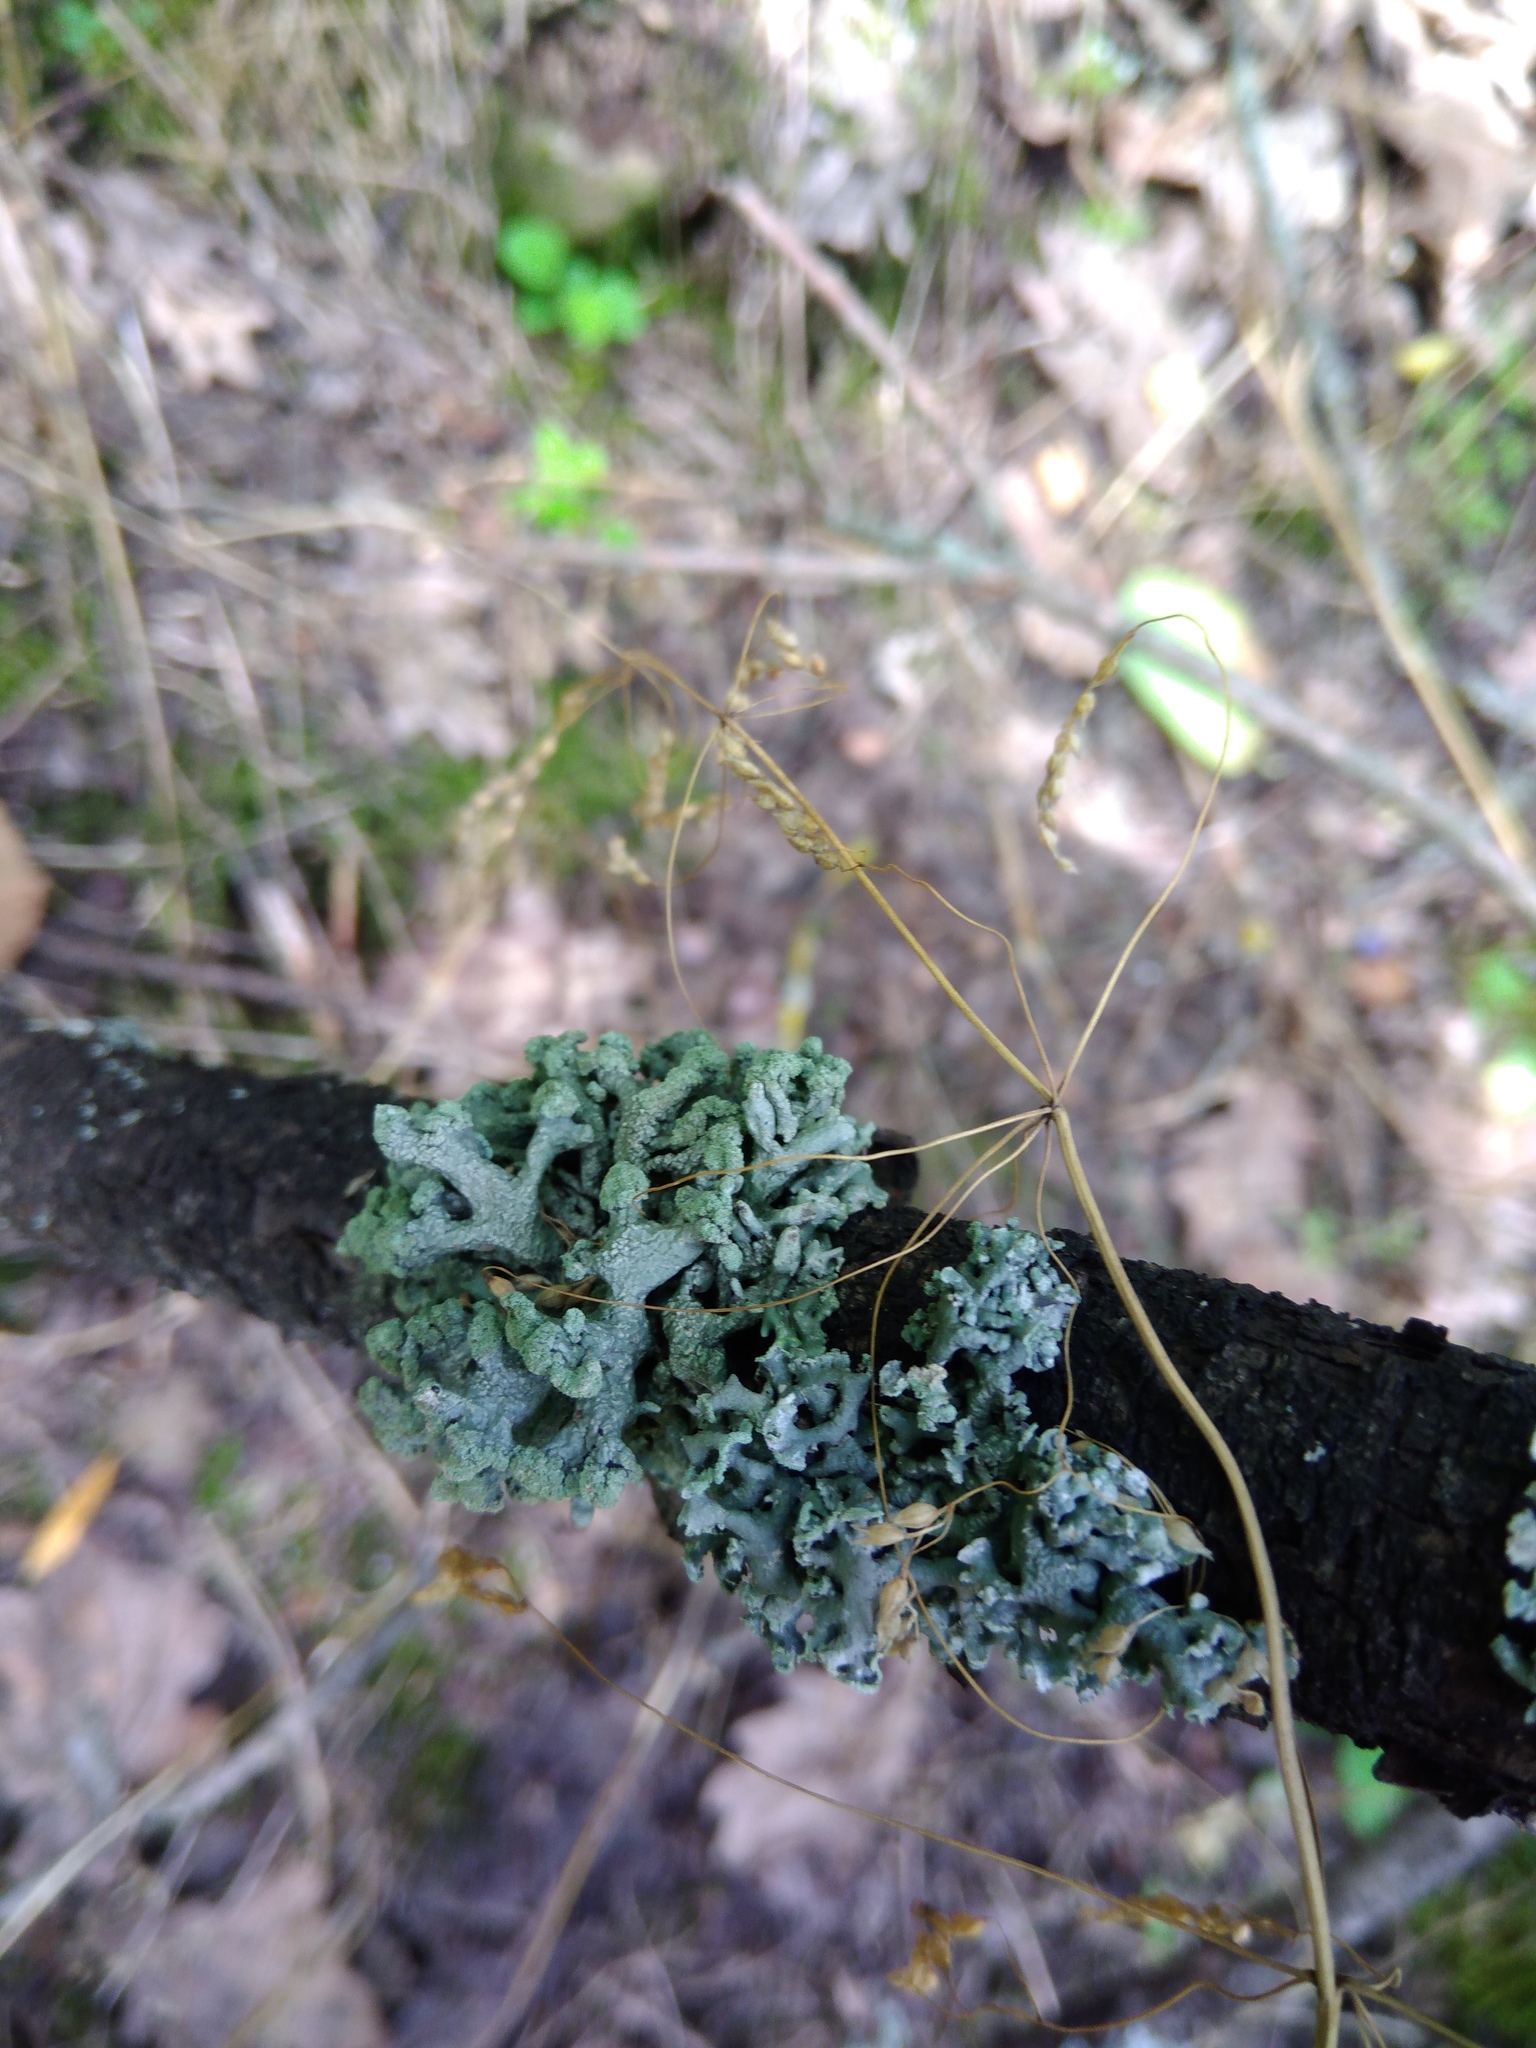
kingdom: Fungi
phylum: Ascomycota
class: Lecanoromycetes
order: Lecanorales
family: Parmeliaceae
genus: Hypogymnia
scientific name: Hypogymnia tubulosa
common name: Powder-headed tube lichen
